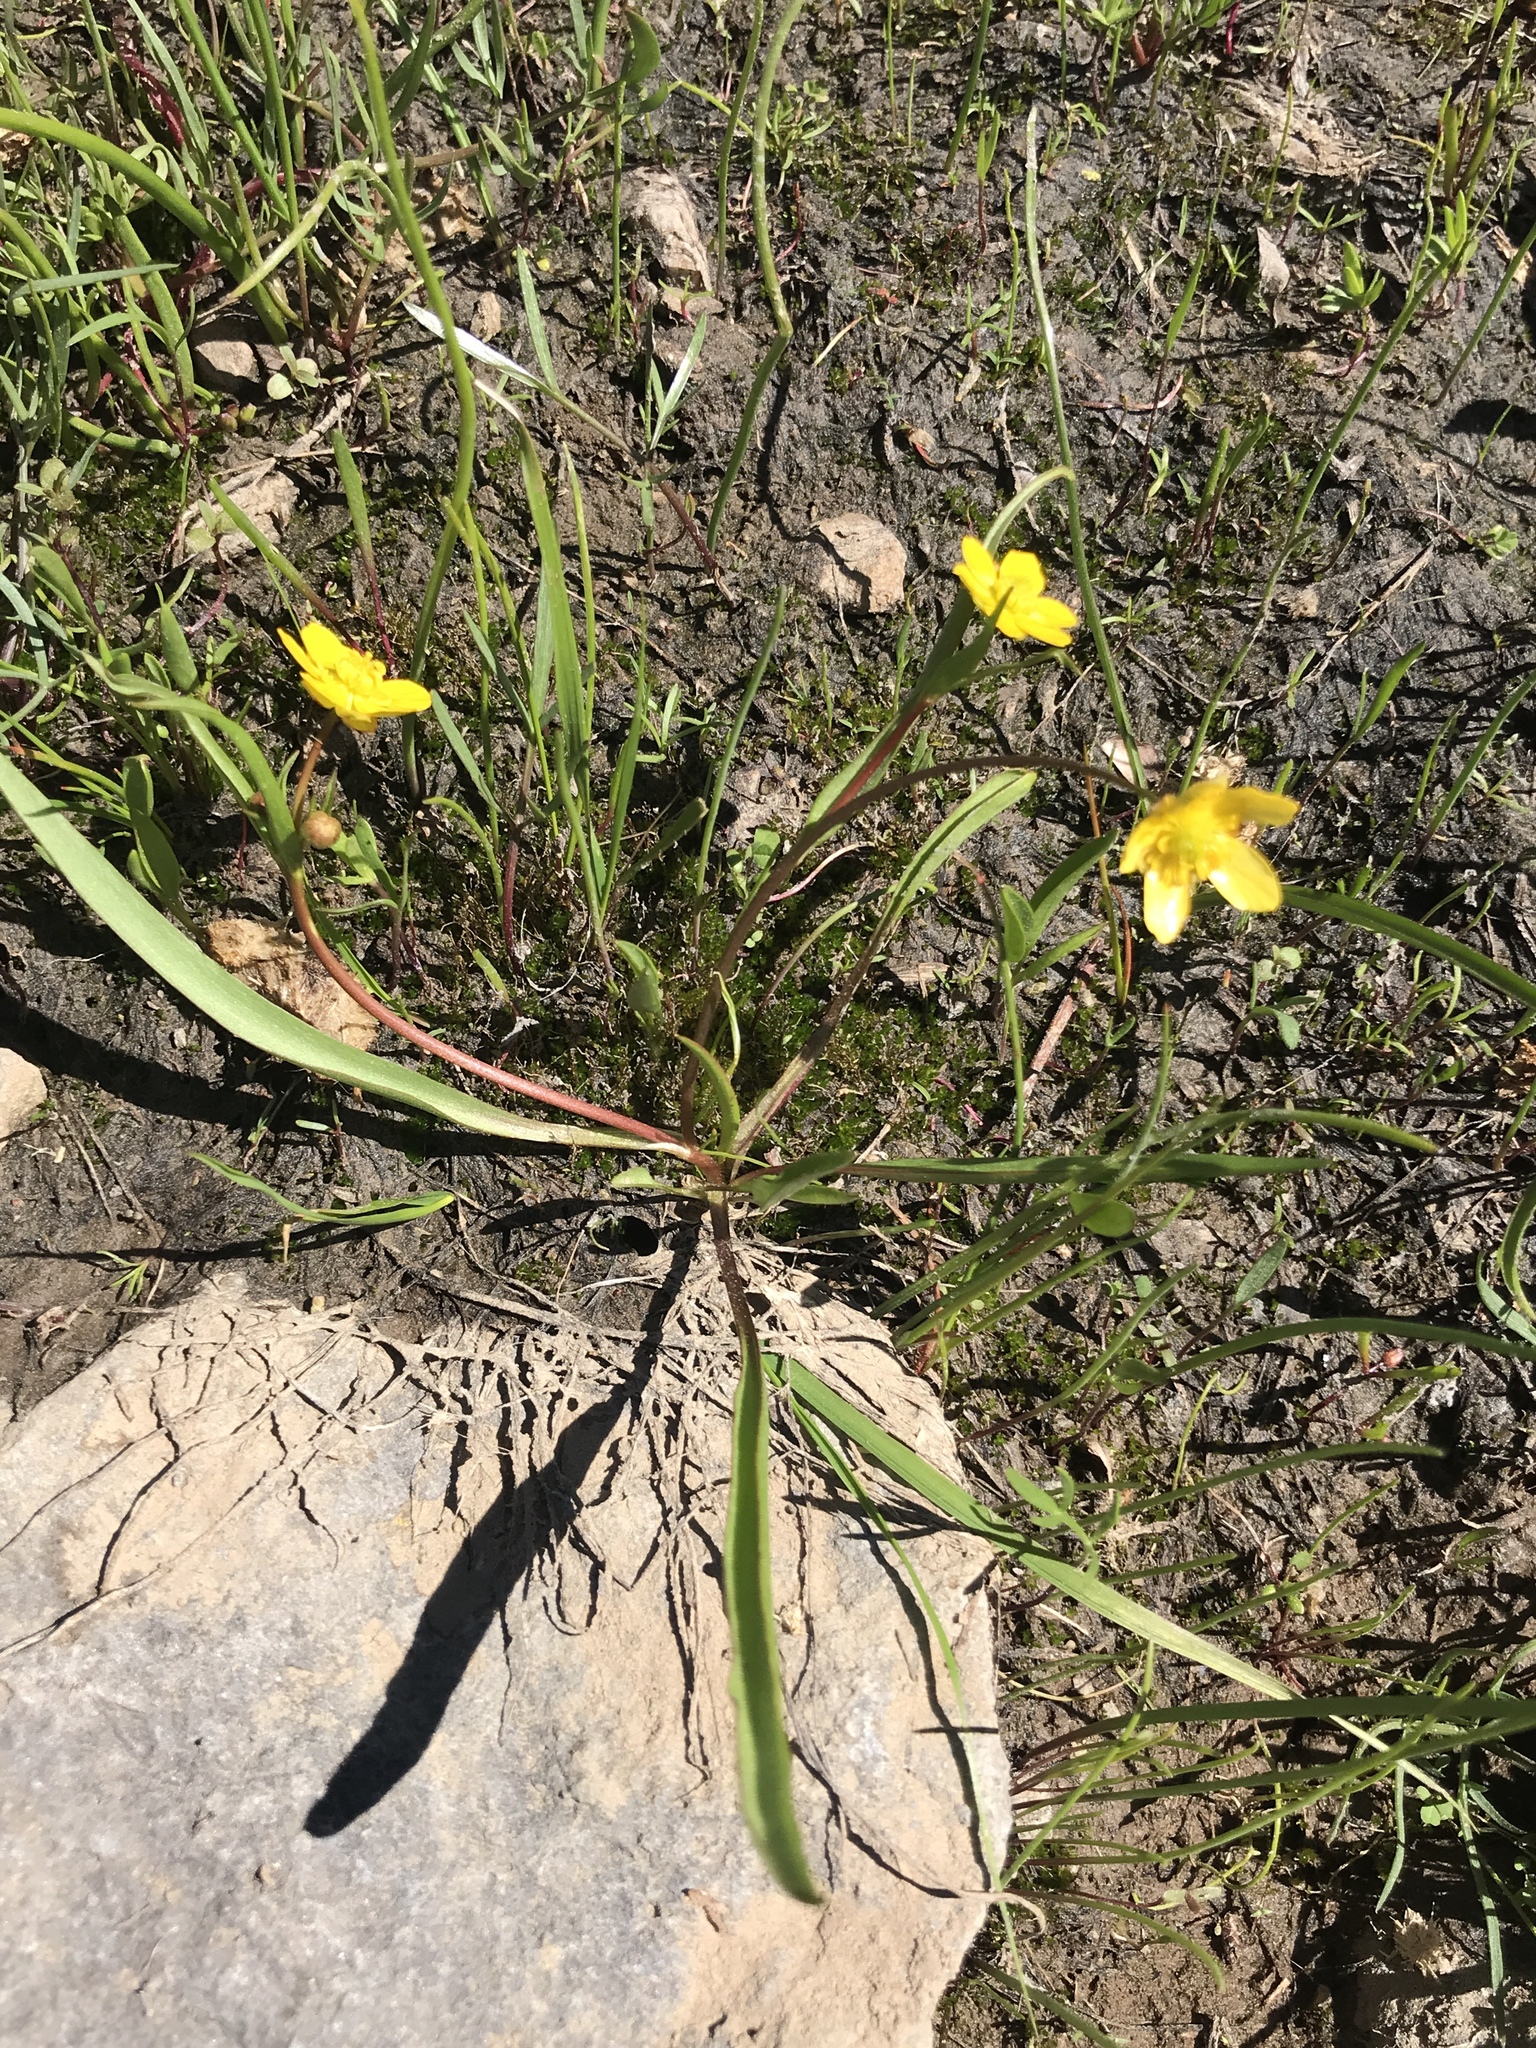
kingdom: Plantae
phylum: Tracheophyta
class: Magnoliopsida
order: Ranunculales
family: Ranunculaceae
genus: Ranunculus
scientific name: Ranunculus alismifolius
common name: Plantain-leaved buttercup
